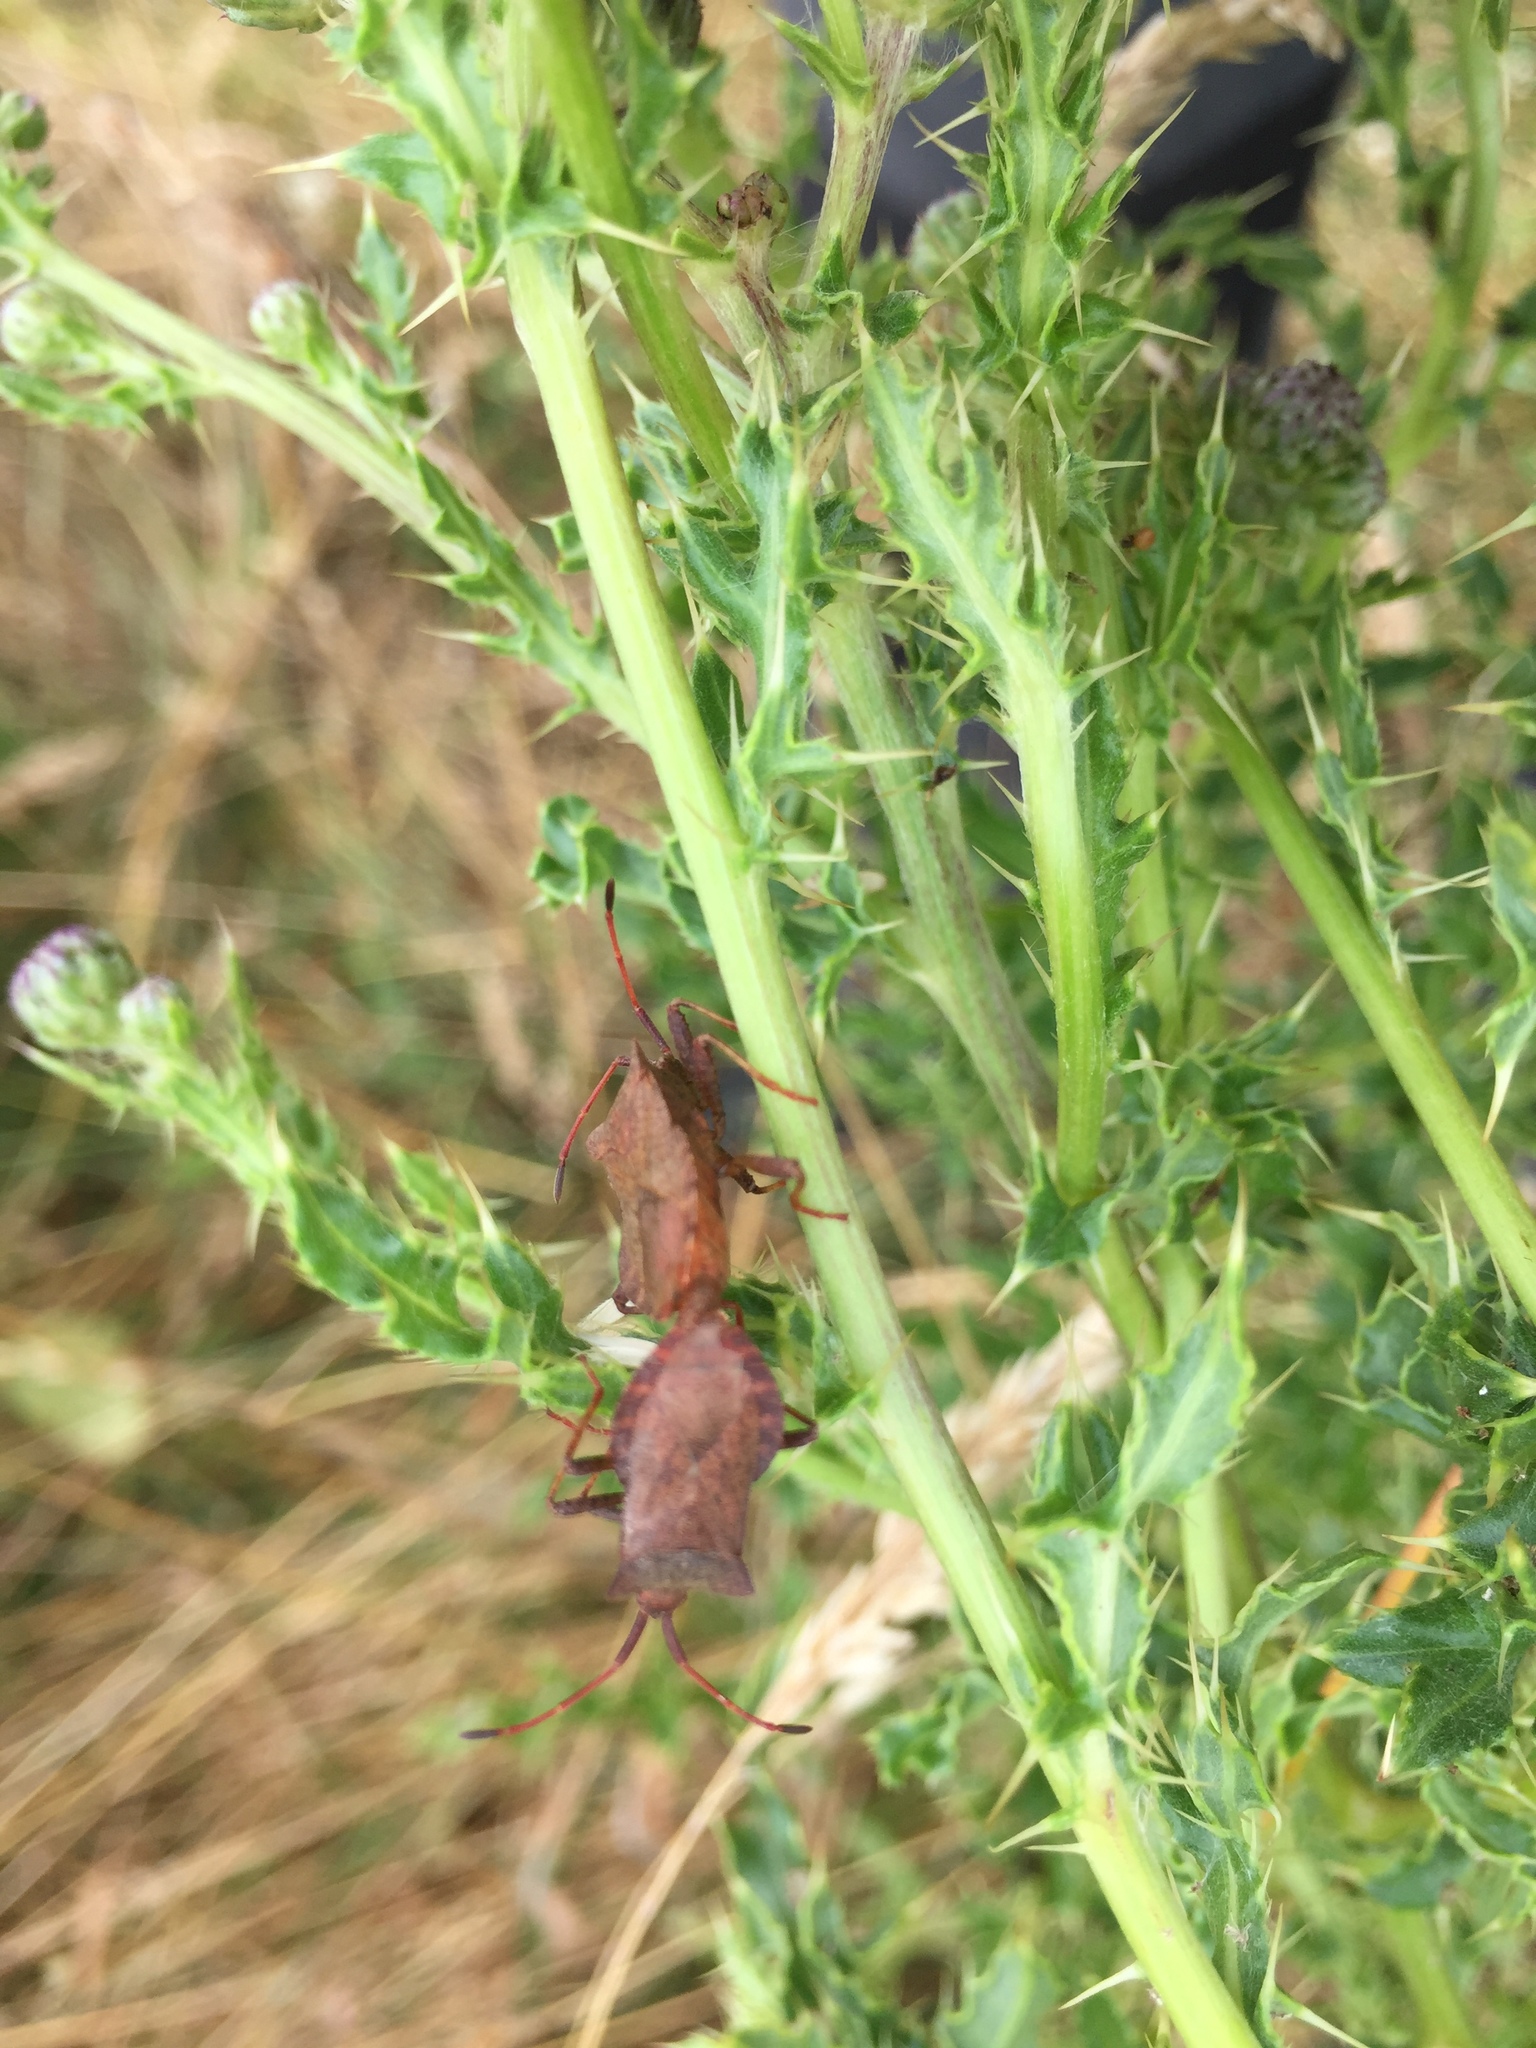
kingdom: Animalia
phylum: Arthropoda
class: Insecta
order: Hemiptera
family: Coreidae
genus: Coreus
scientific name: Coreus marginatus
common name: Dock bug
